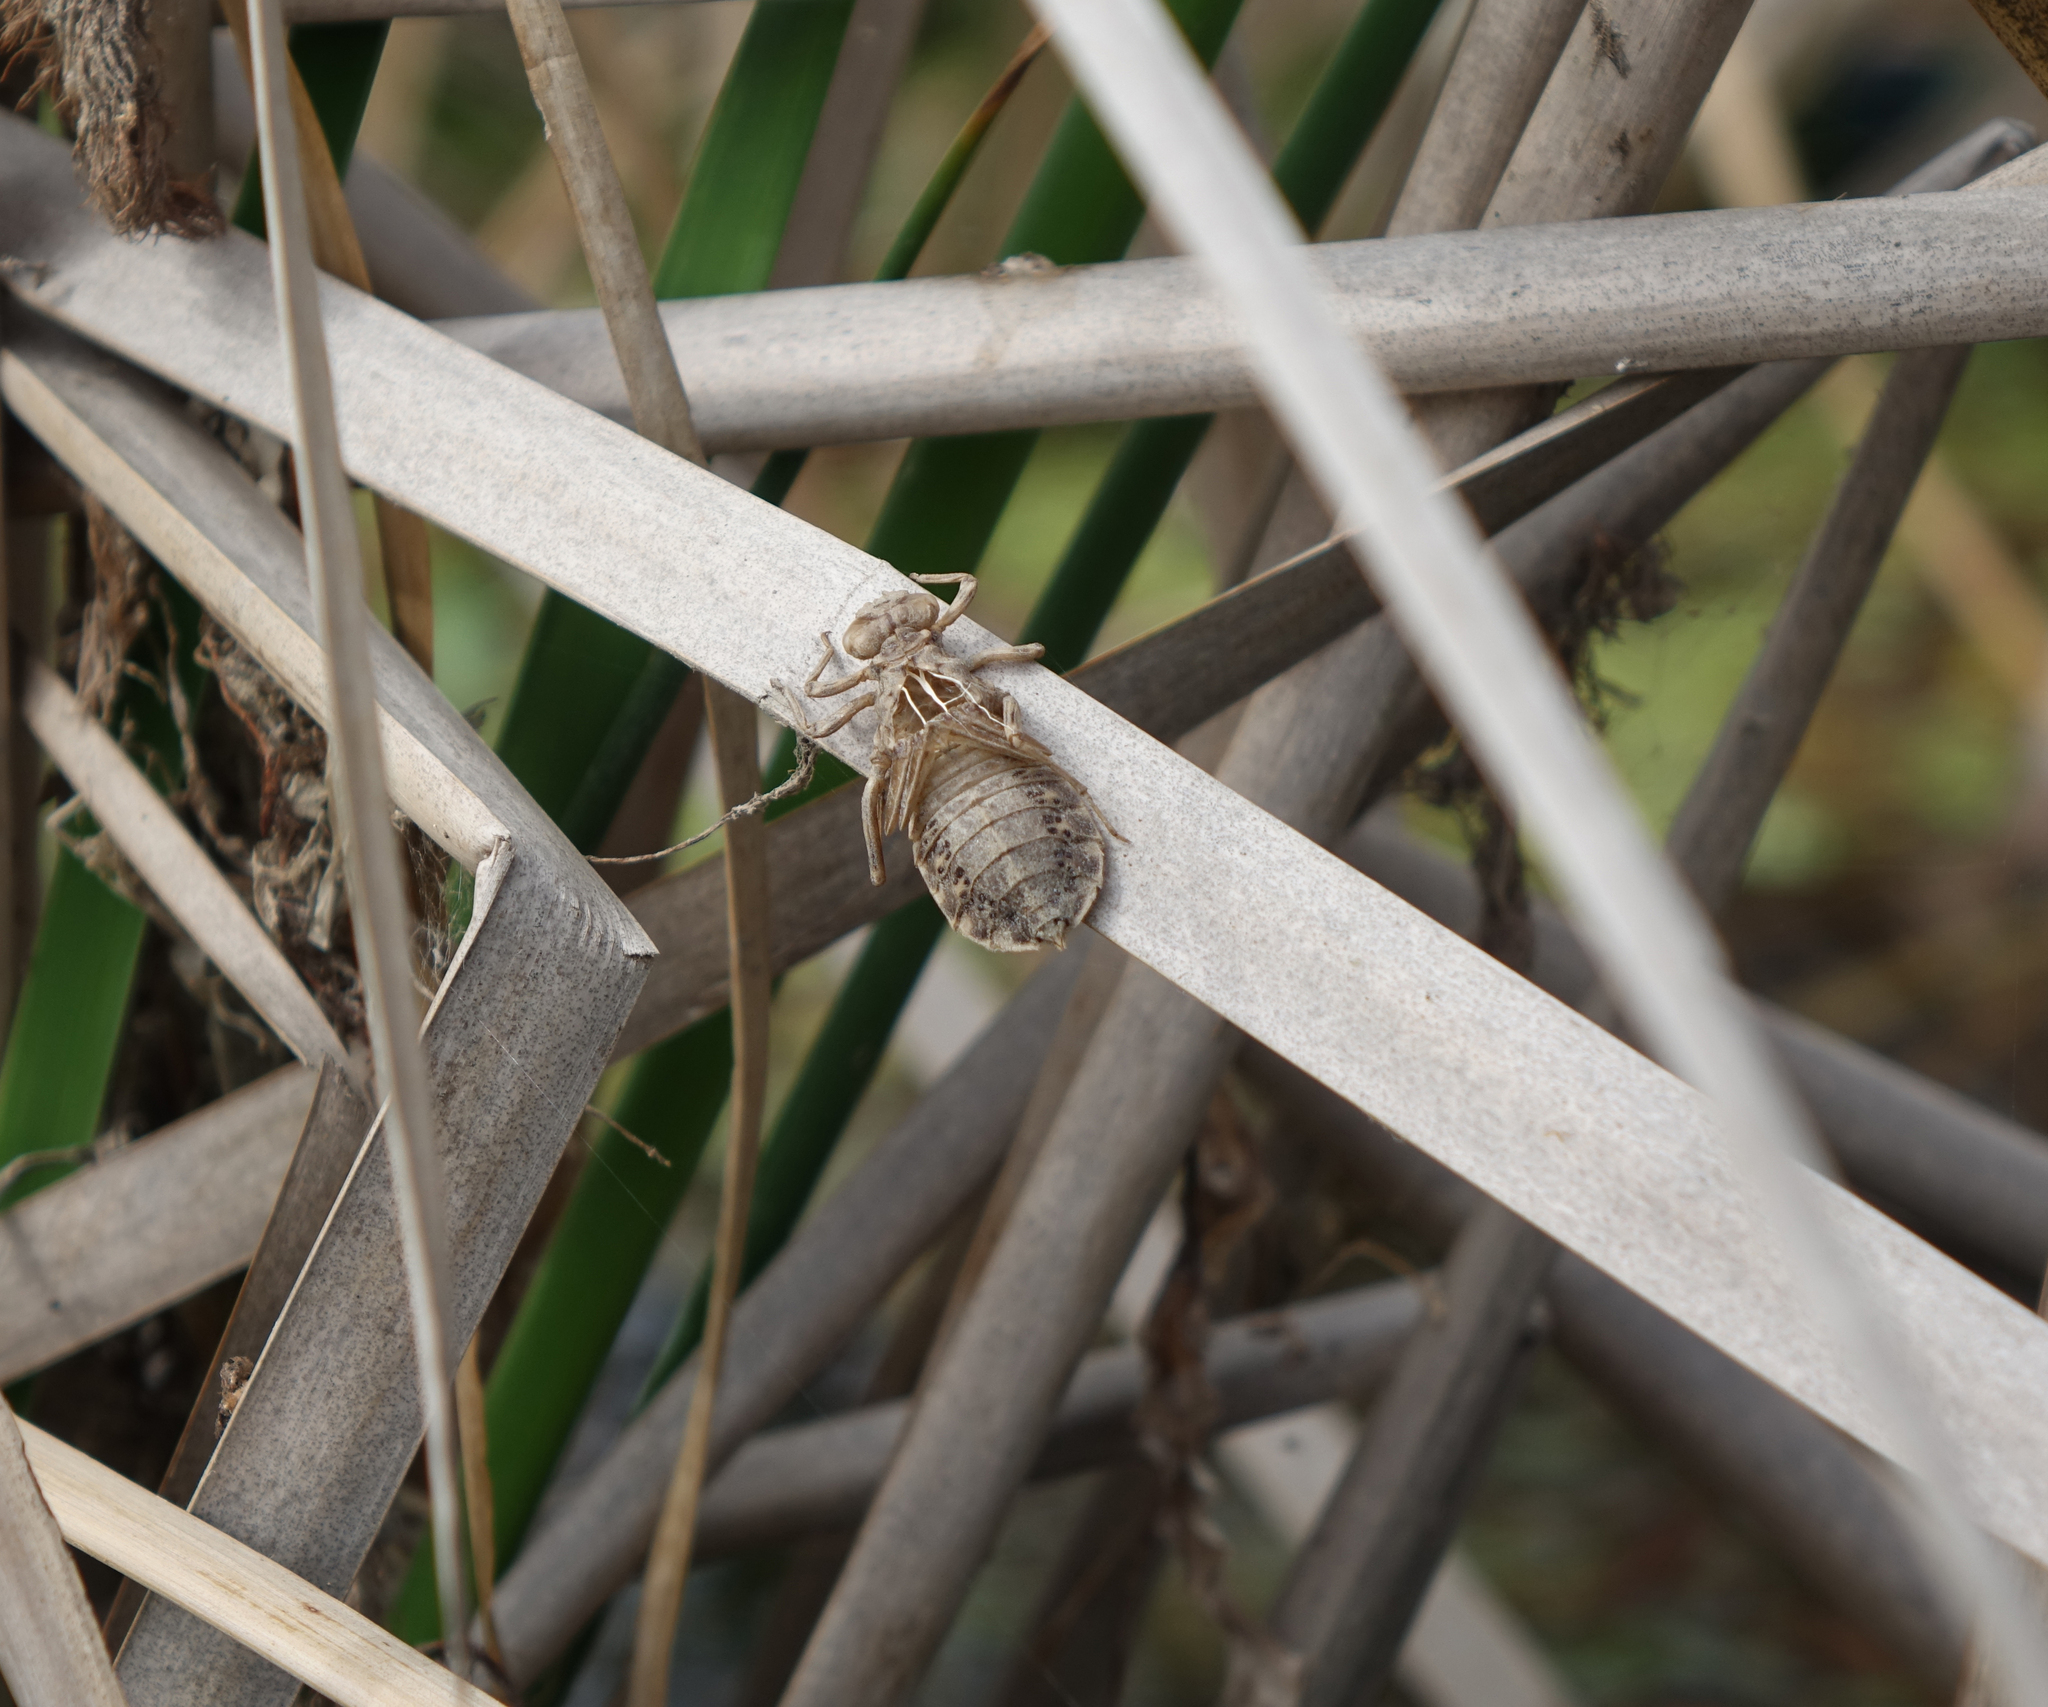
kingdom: Animalia
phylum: Arthropoda
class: Insecta
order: Odonata
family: Gomphidae
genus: Lindenia
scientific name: Lindenia tetraphylla
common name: Bladetail
